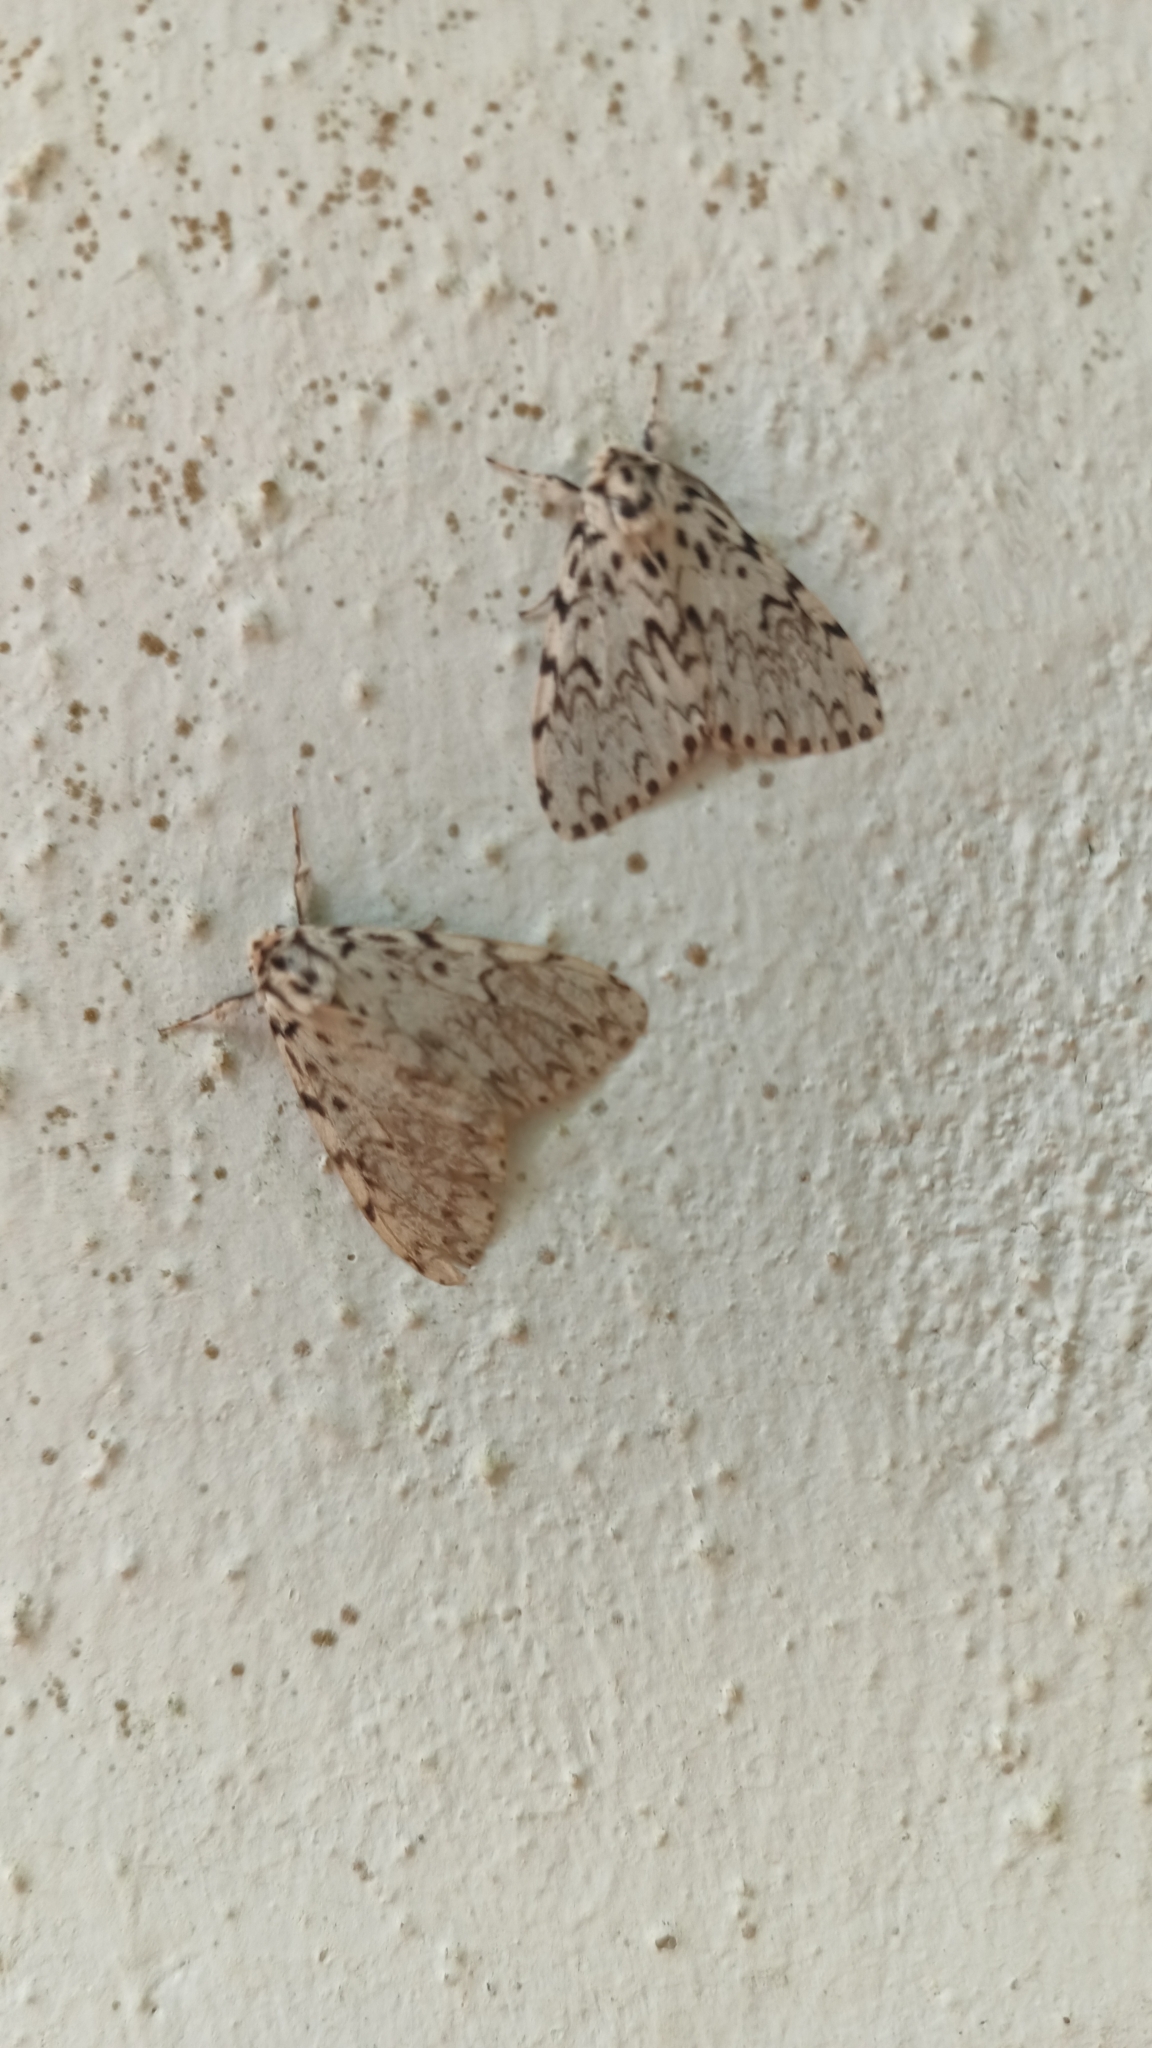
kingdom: Animalia
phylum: Arthropoda
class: Insecta
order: Lepidoptera
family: Erebidae
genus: Lymantria
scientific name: Lymantria monacha
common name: Black arches
